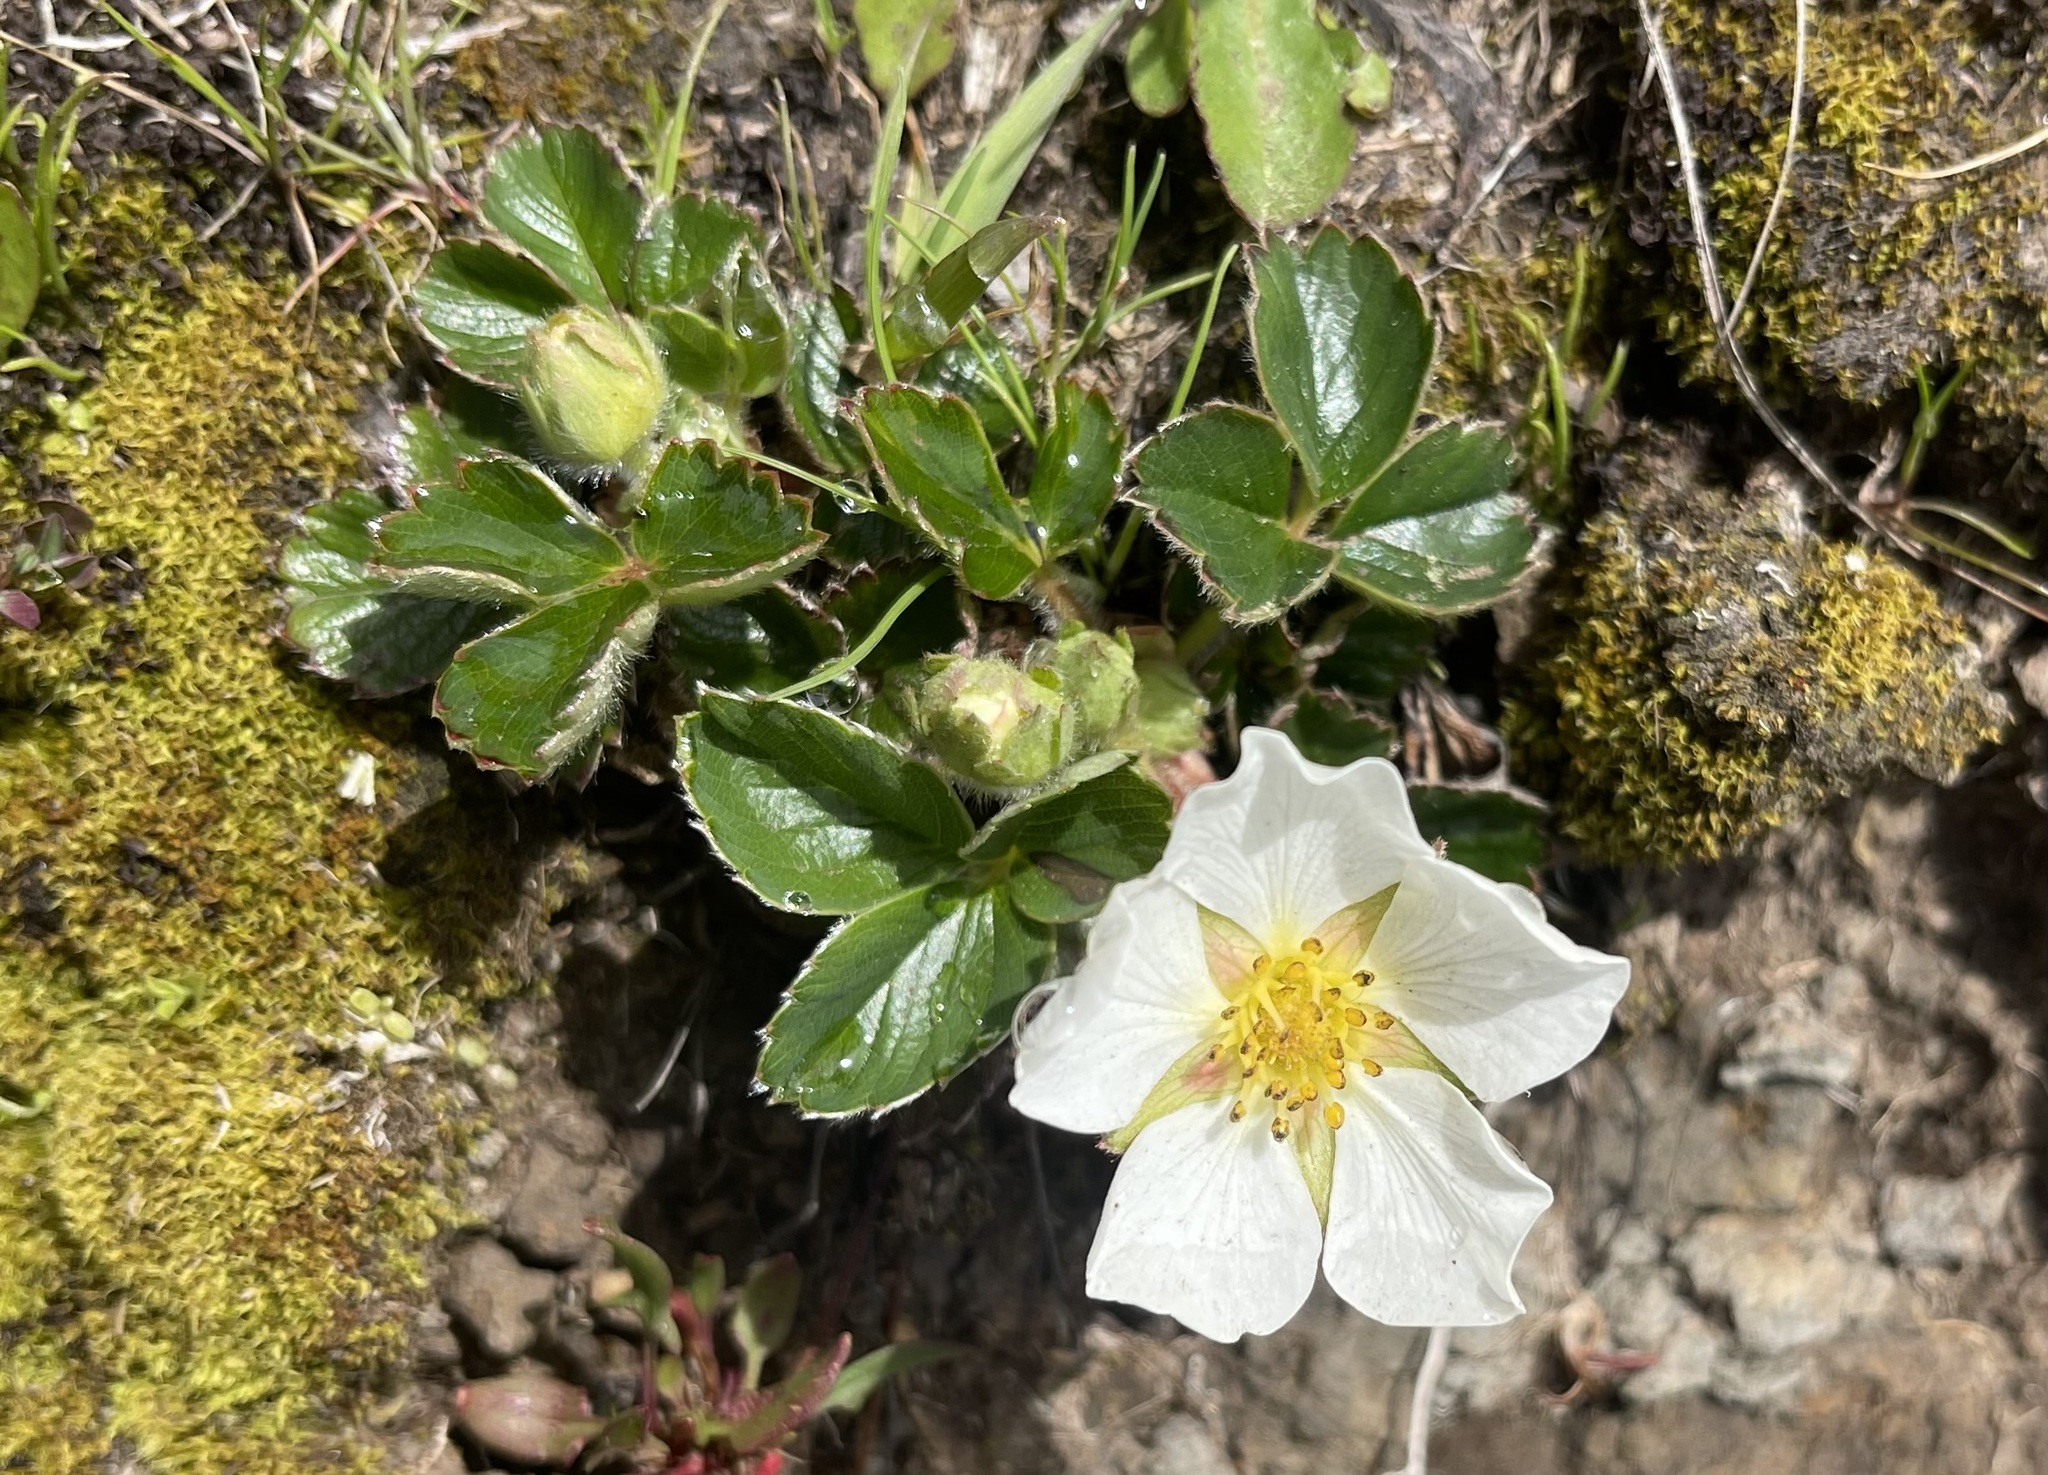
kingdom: Plantae
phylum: Tracheophyta
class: Magnoliopsida
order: Rosales
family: Rosaceae
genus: Fragaria
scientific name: Fragaria chiloensis
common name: Beach strawberry
